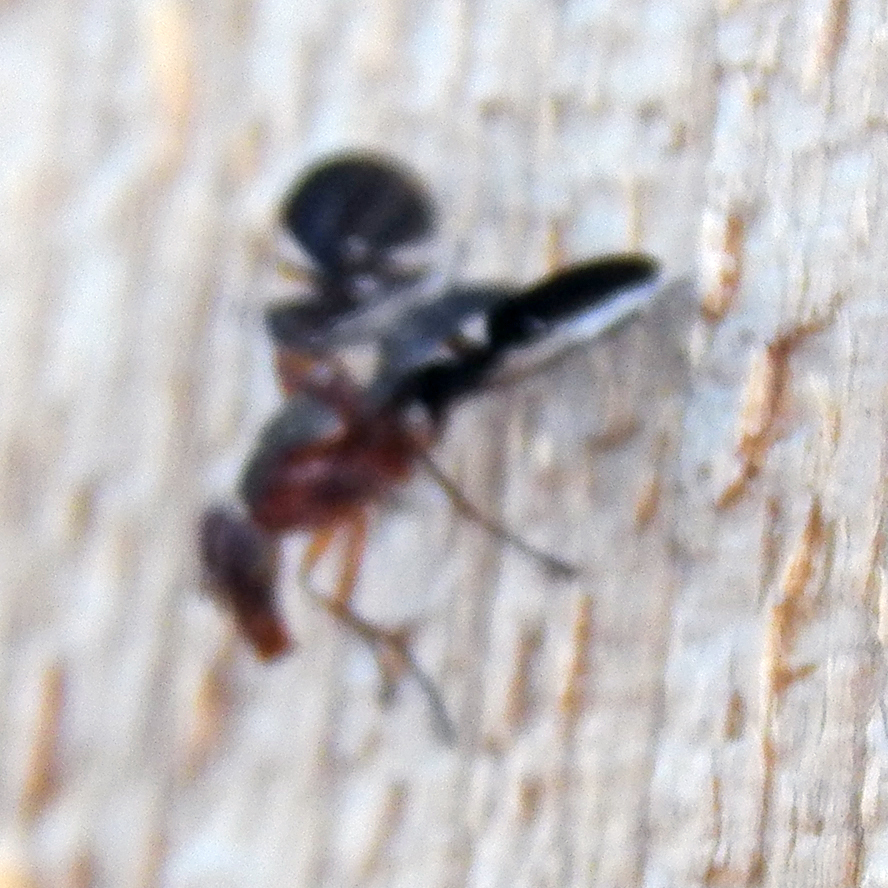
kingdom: Animalia
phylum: Arthropoda
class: Insecta
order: Diptera
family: Ulidiidae
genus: Delphinia
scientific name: Delphinia picta
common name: Common picture-winged fly
